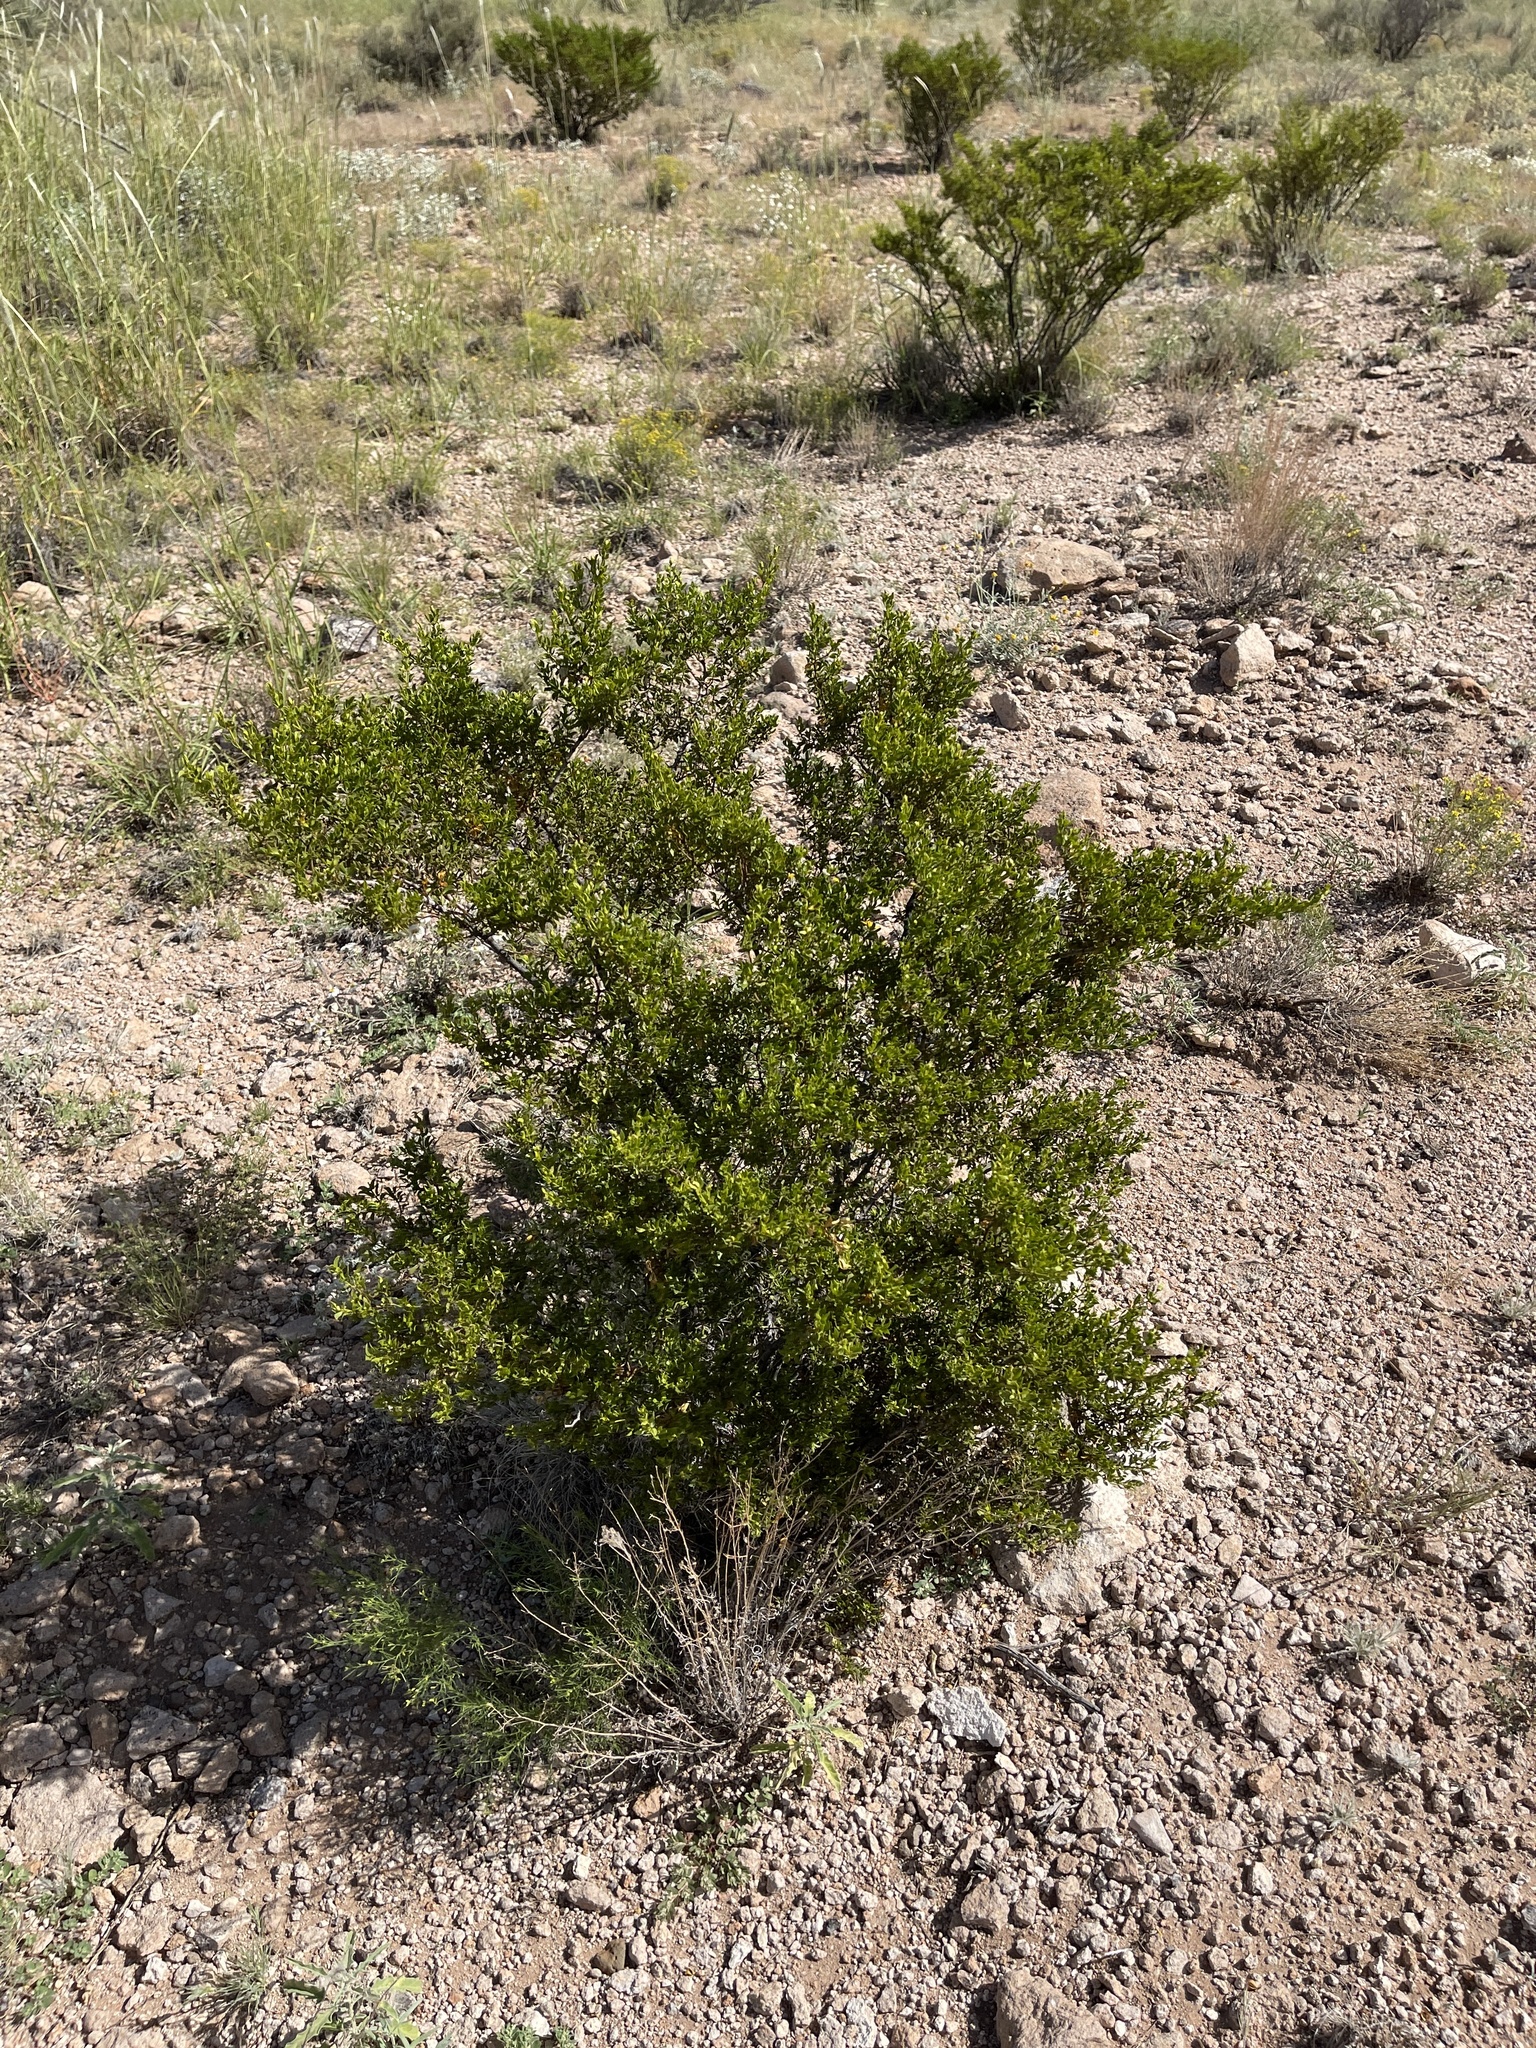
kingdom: Plantae
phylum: Tracheophyta
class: Magnoliopsida
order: Zygophyllales
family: Zygophyllaceae
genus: Larrea
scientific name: Larrea tridentata
